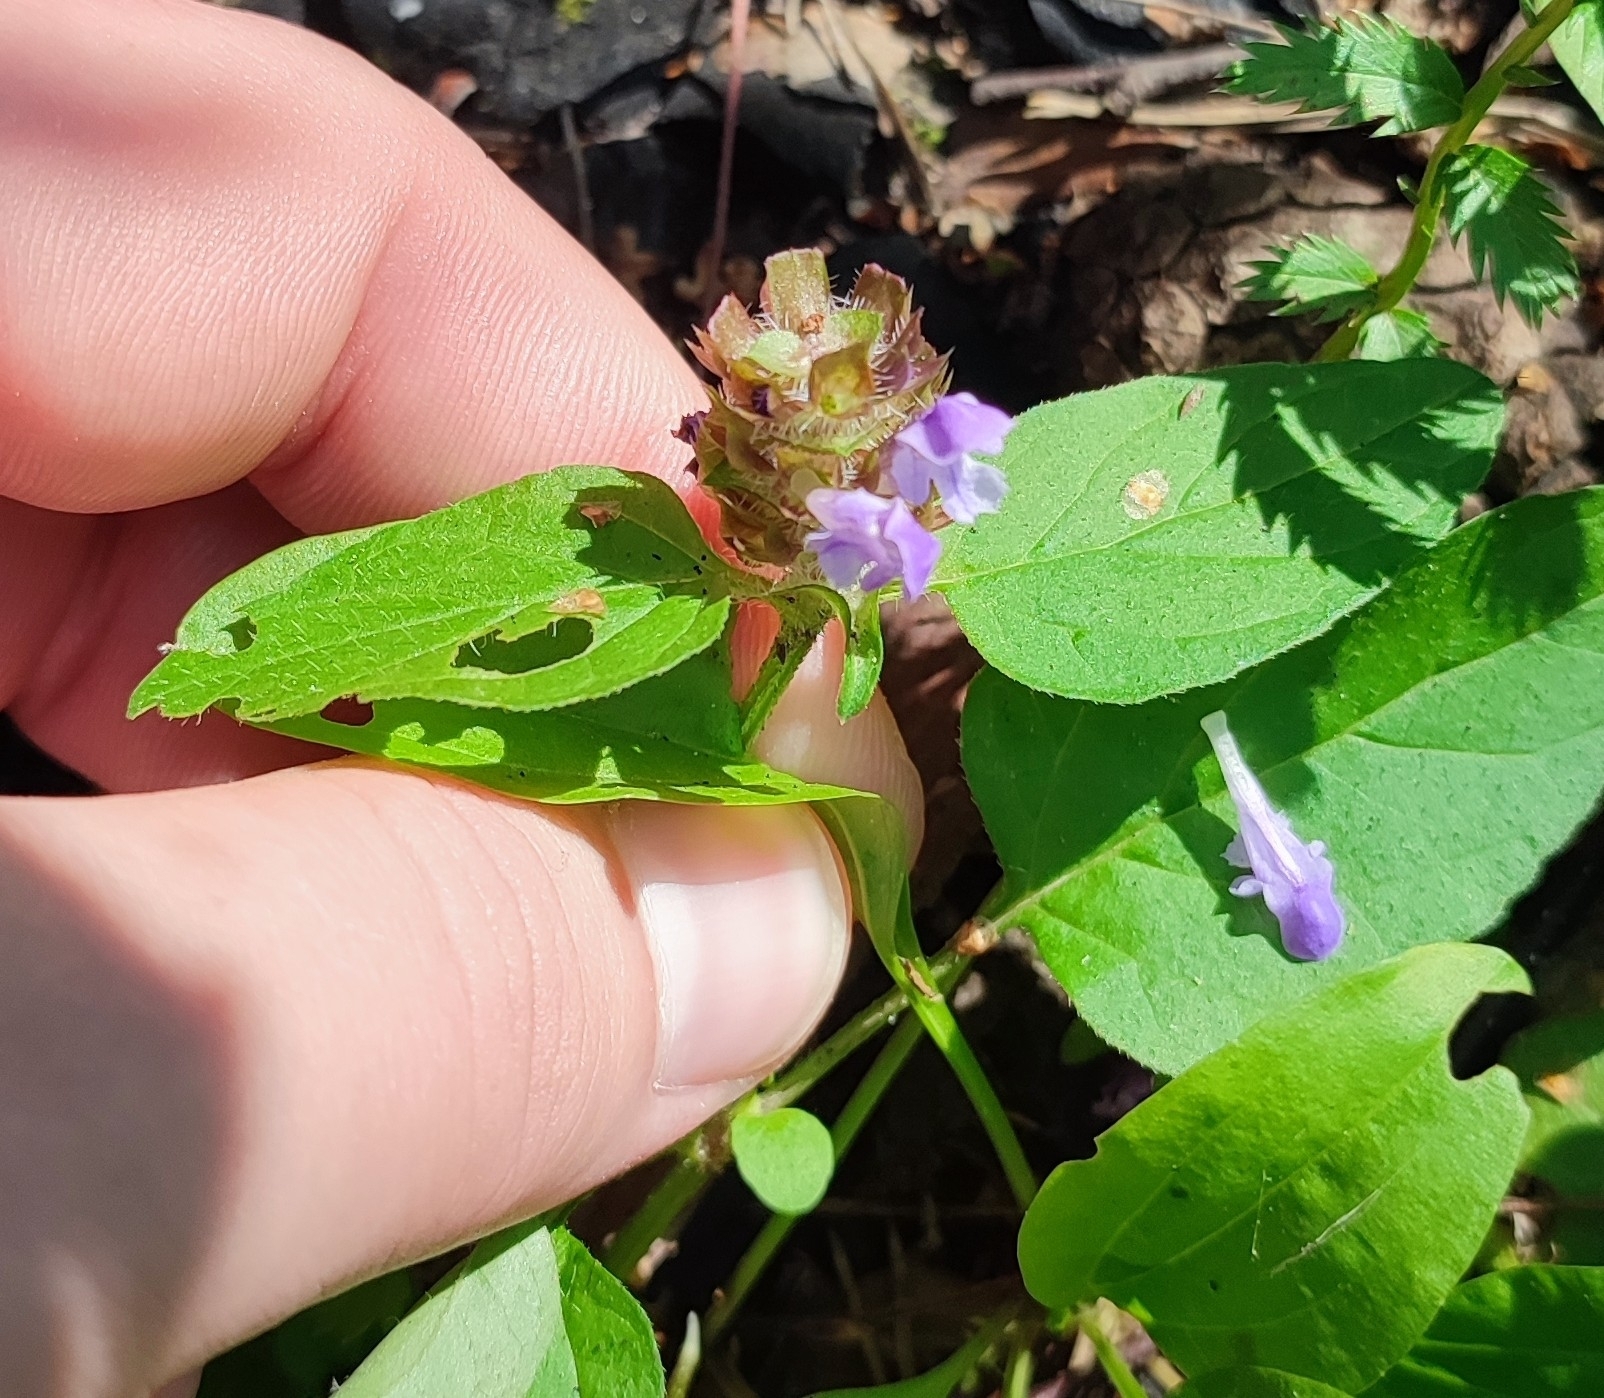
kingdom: Plantae
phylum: Tracheophyta
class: Magnoliopsida
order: Lamiales
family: Lamiaceae
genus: Prunella
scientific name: Prunella vulgaris
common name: Heal-all
